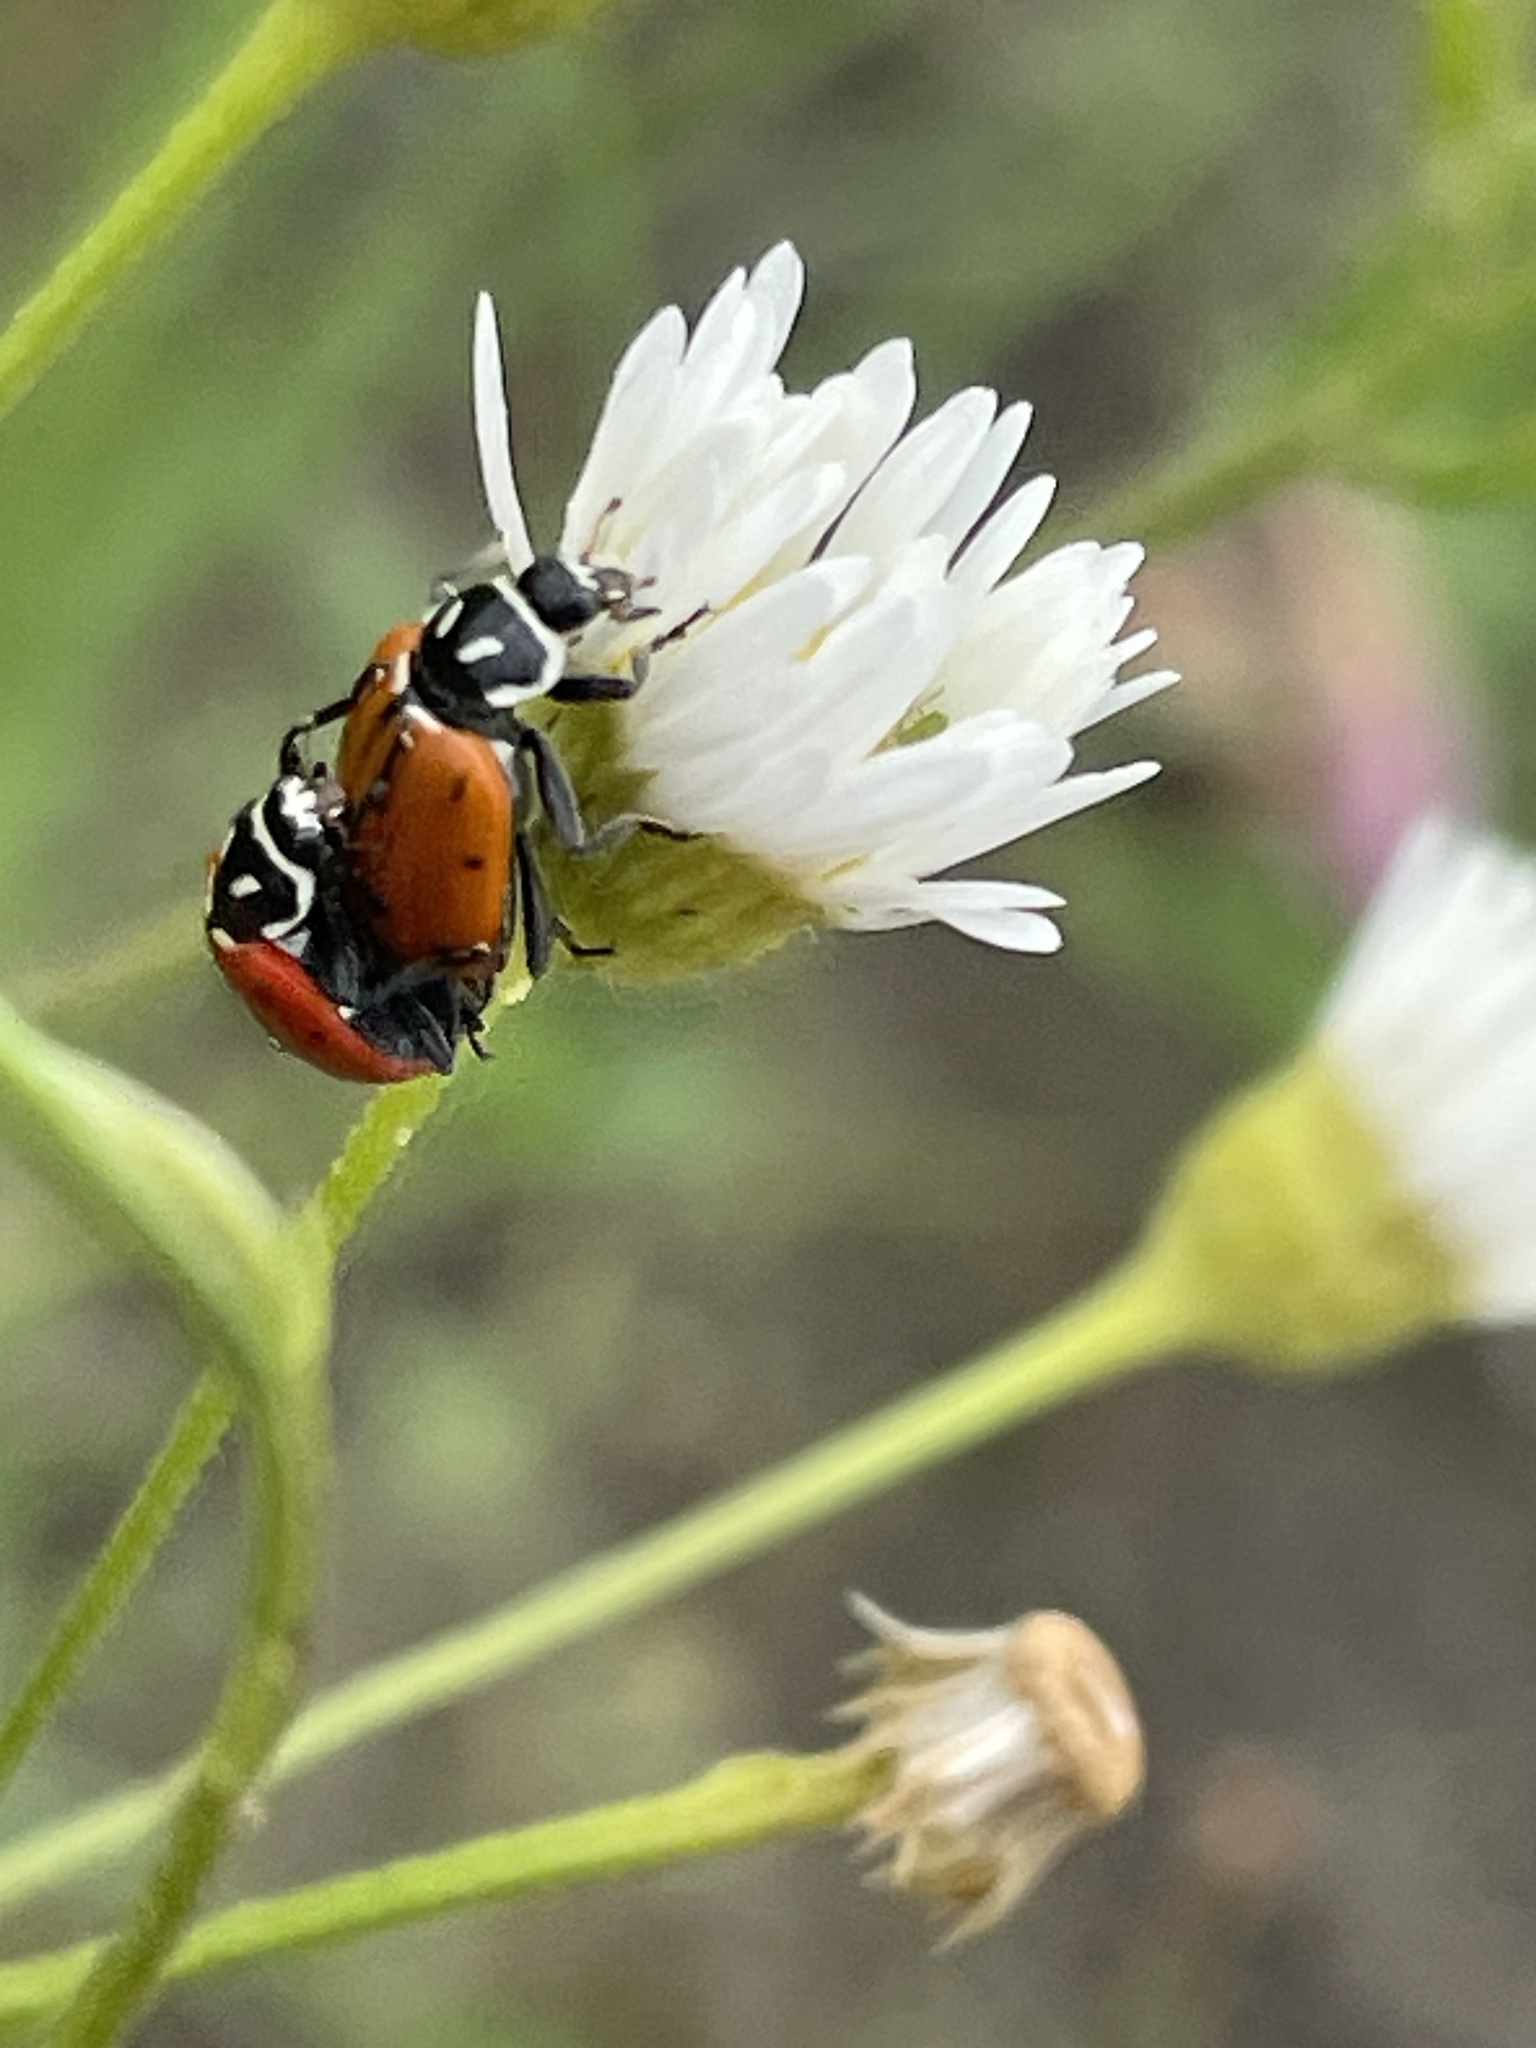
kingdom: Animalia
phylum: Arthropoda
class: Insecta
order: Coleoptera
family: Coccinellidae
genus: Hippodamia
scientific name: Hippodamia convergens
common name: Convergent lady beetle
